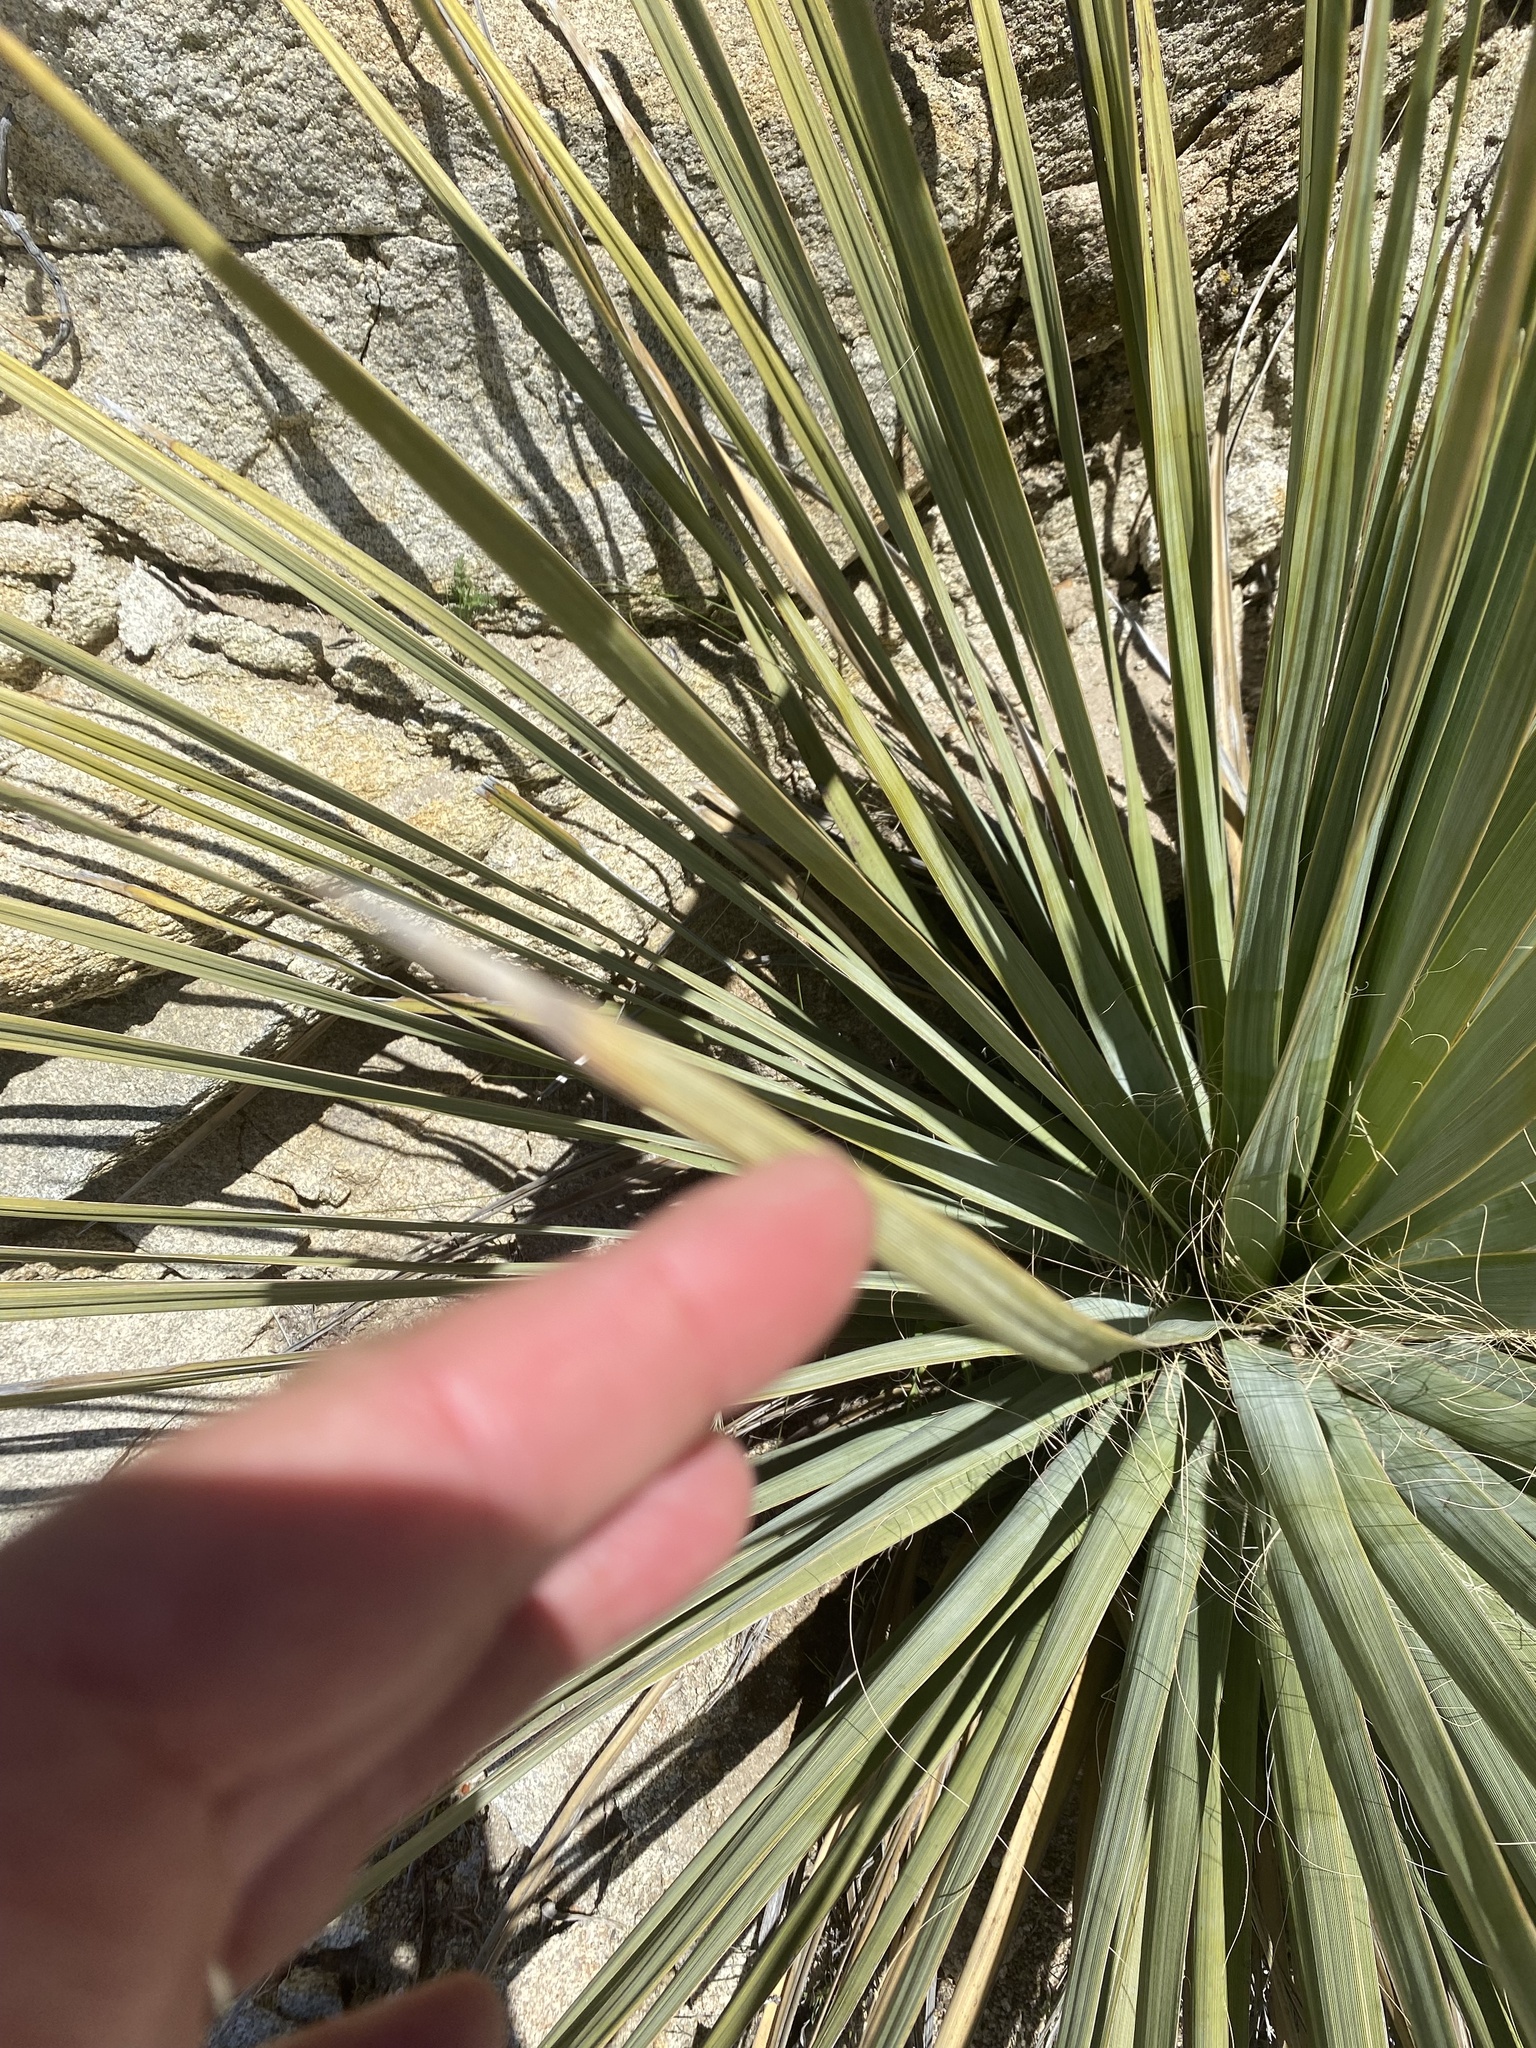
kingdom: Plantae
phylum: Tracheophyta
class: Liliopsida
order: Asparagales
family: Asparagaceae
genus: Nolina
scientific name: Nolina bigelovii
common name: Bigelow bear-grass
